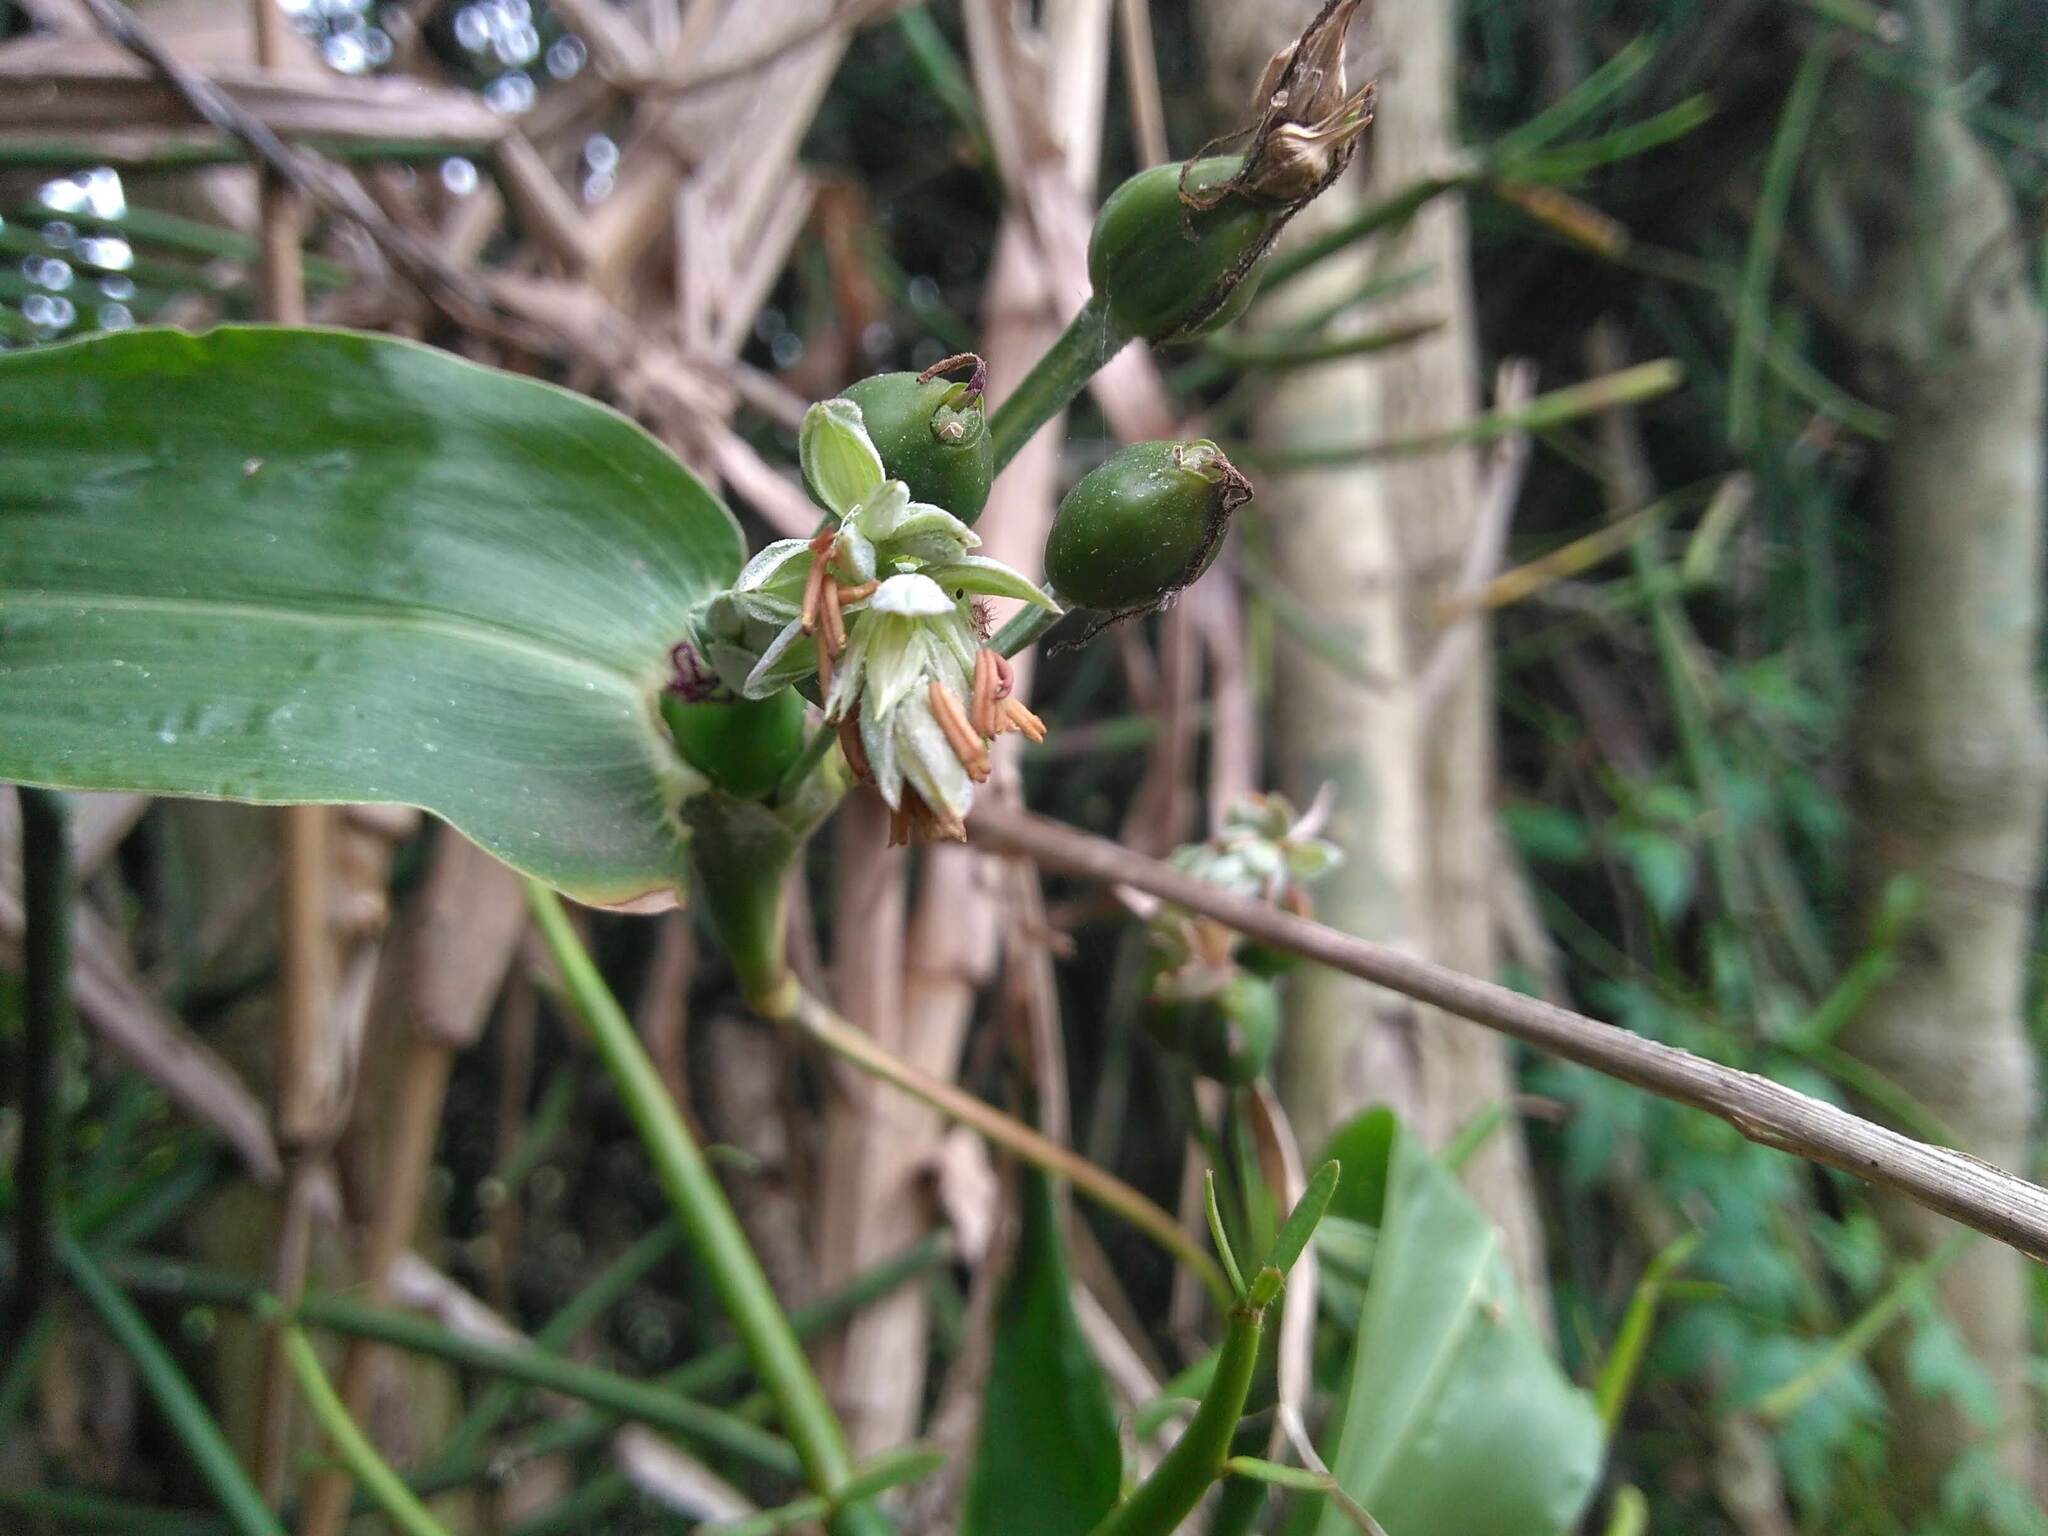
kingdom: Plantae
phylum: Tracheophyta
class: Liliopsida
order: Poales
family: Poaceae
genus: Coix
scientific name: Coix lacryma-jobi
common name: Job's tears
